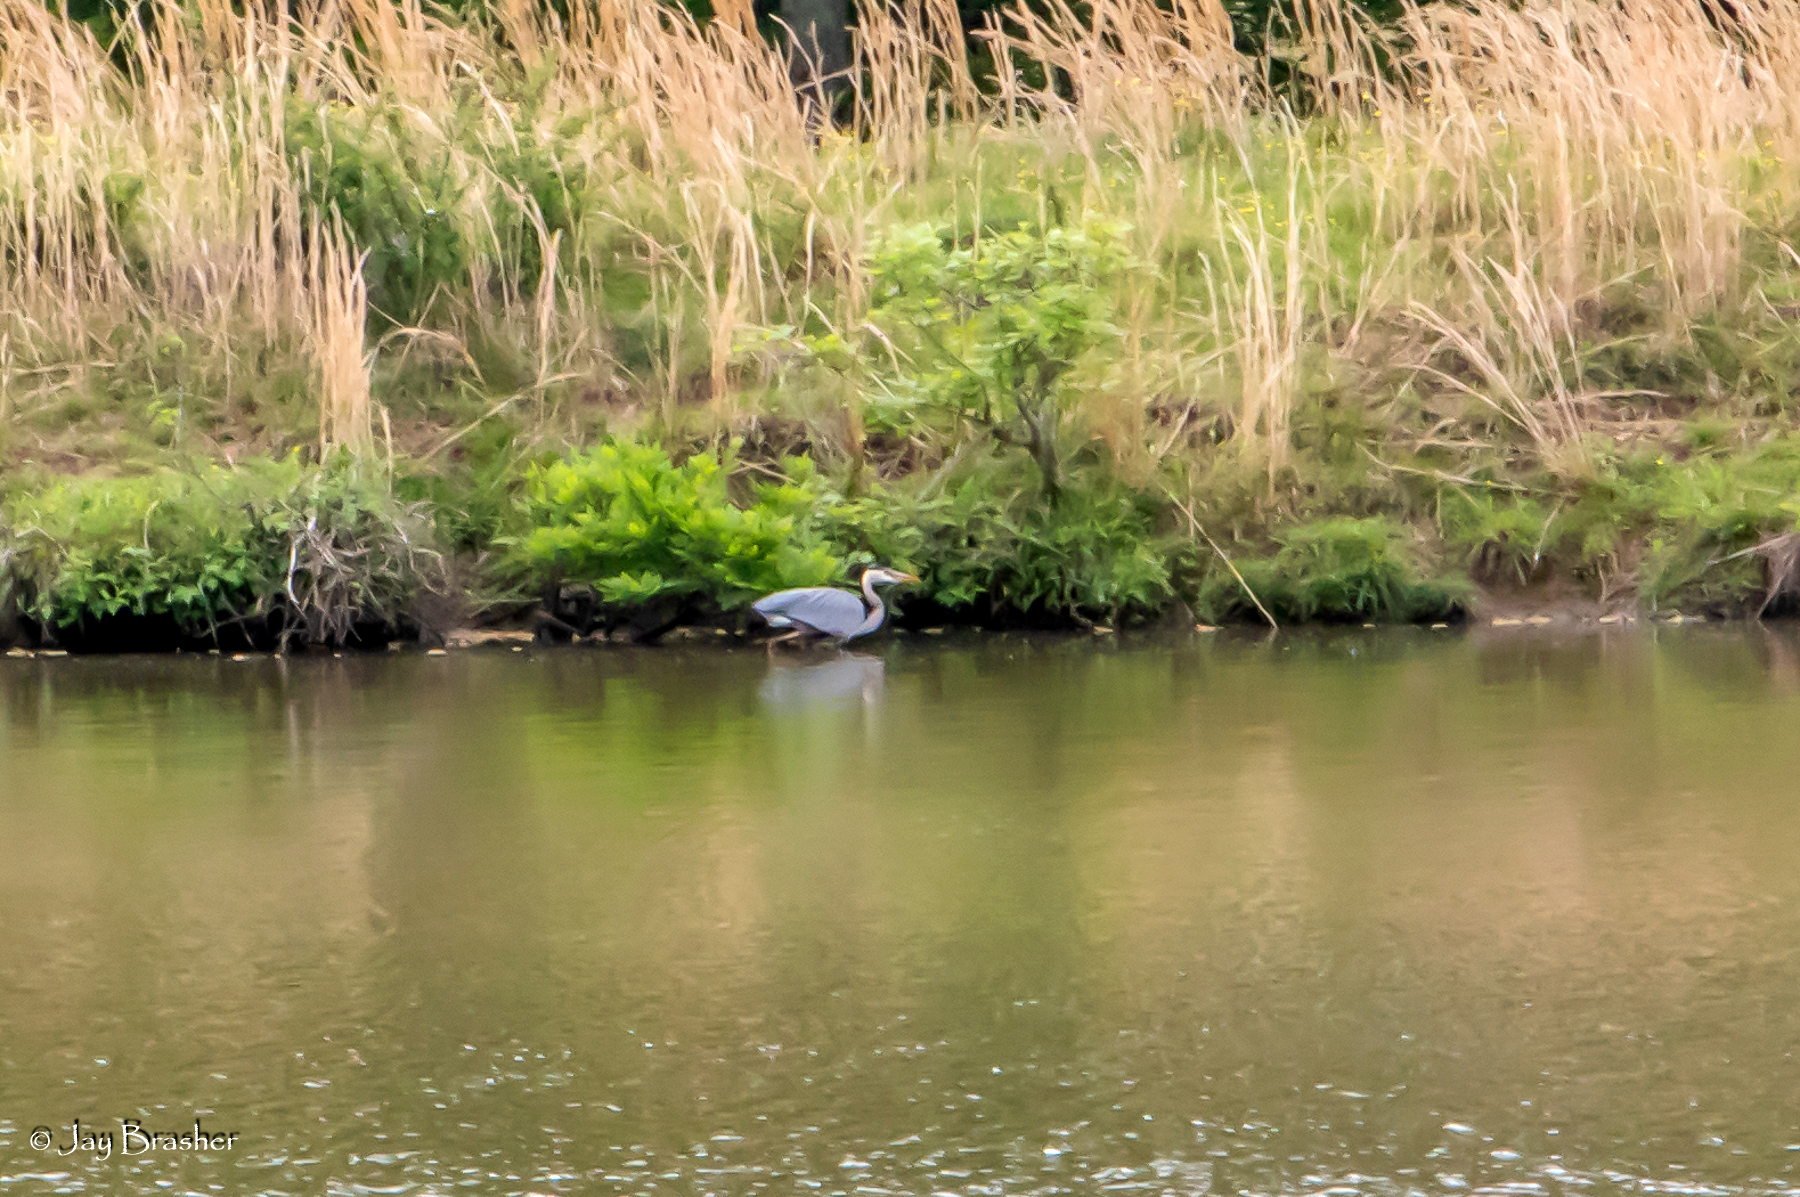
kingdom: Animalia
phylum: Chordata
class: Aves
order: Pelecaniformes
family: Ardeidae
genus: Ardea
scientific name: Ardea herodias
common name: Great blue heron
